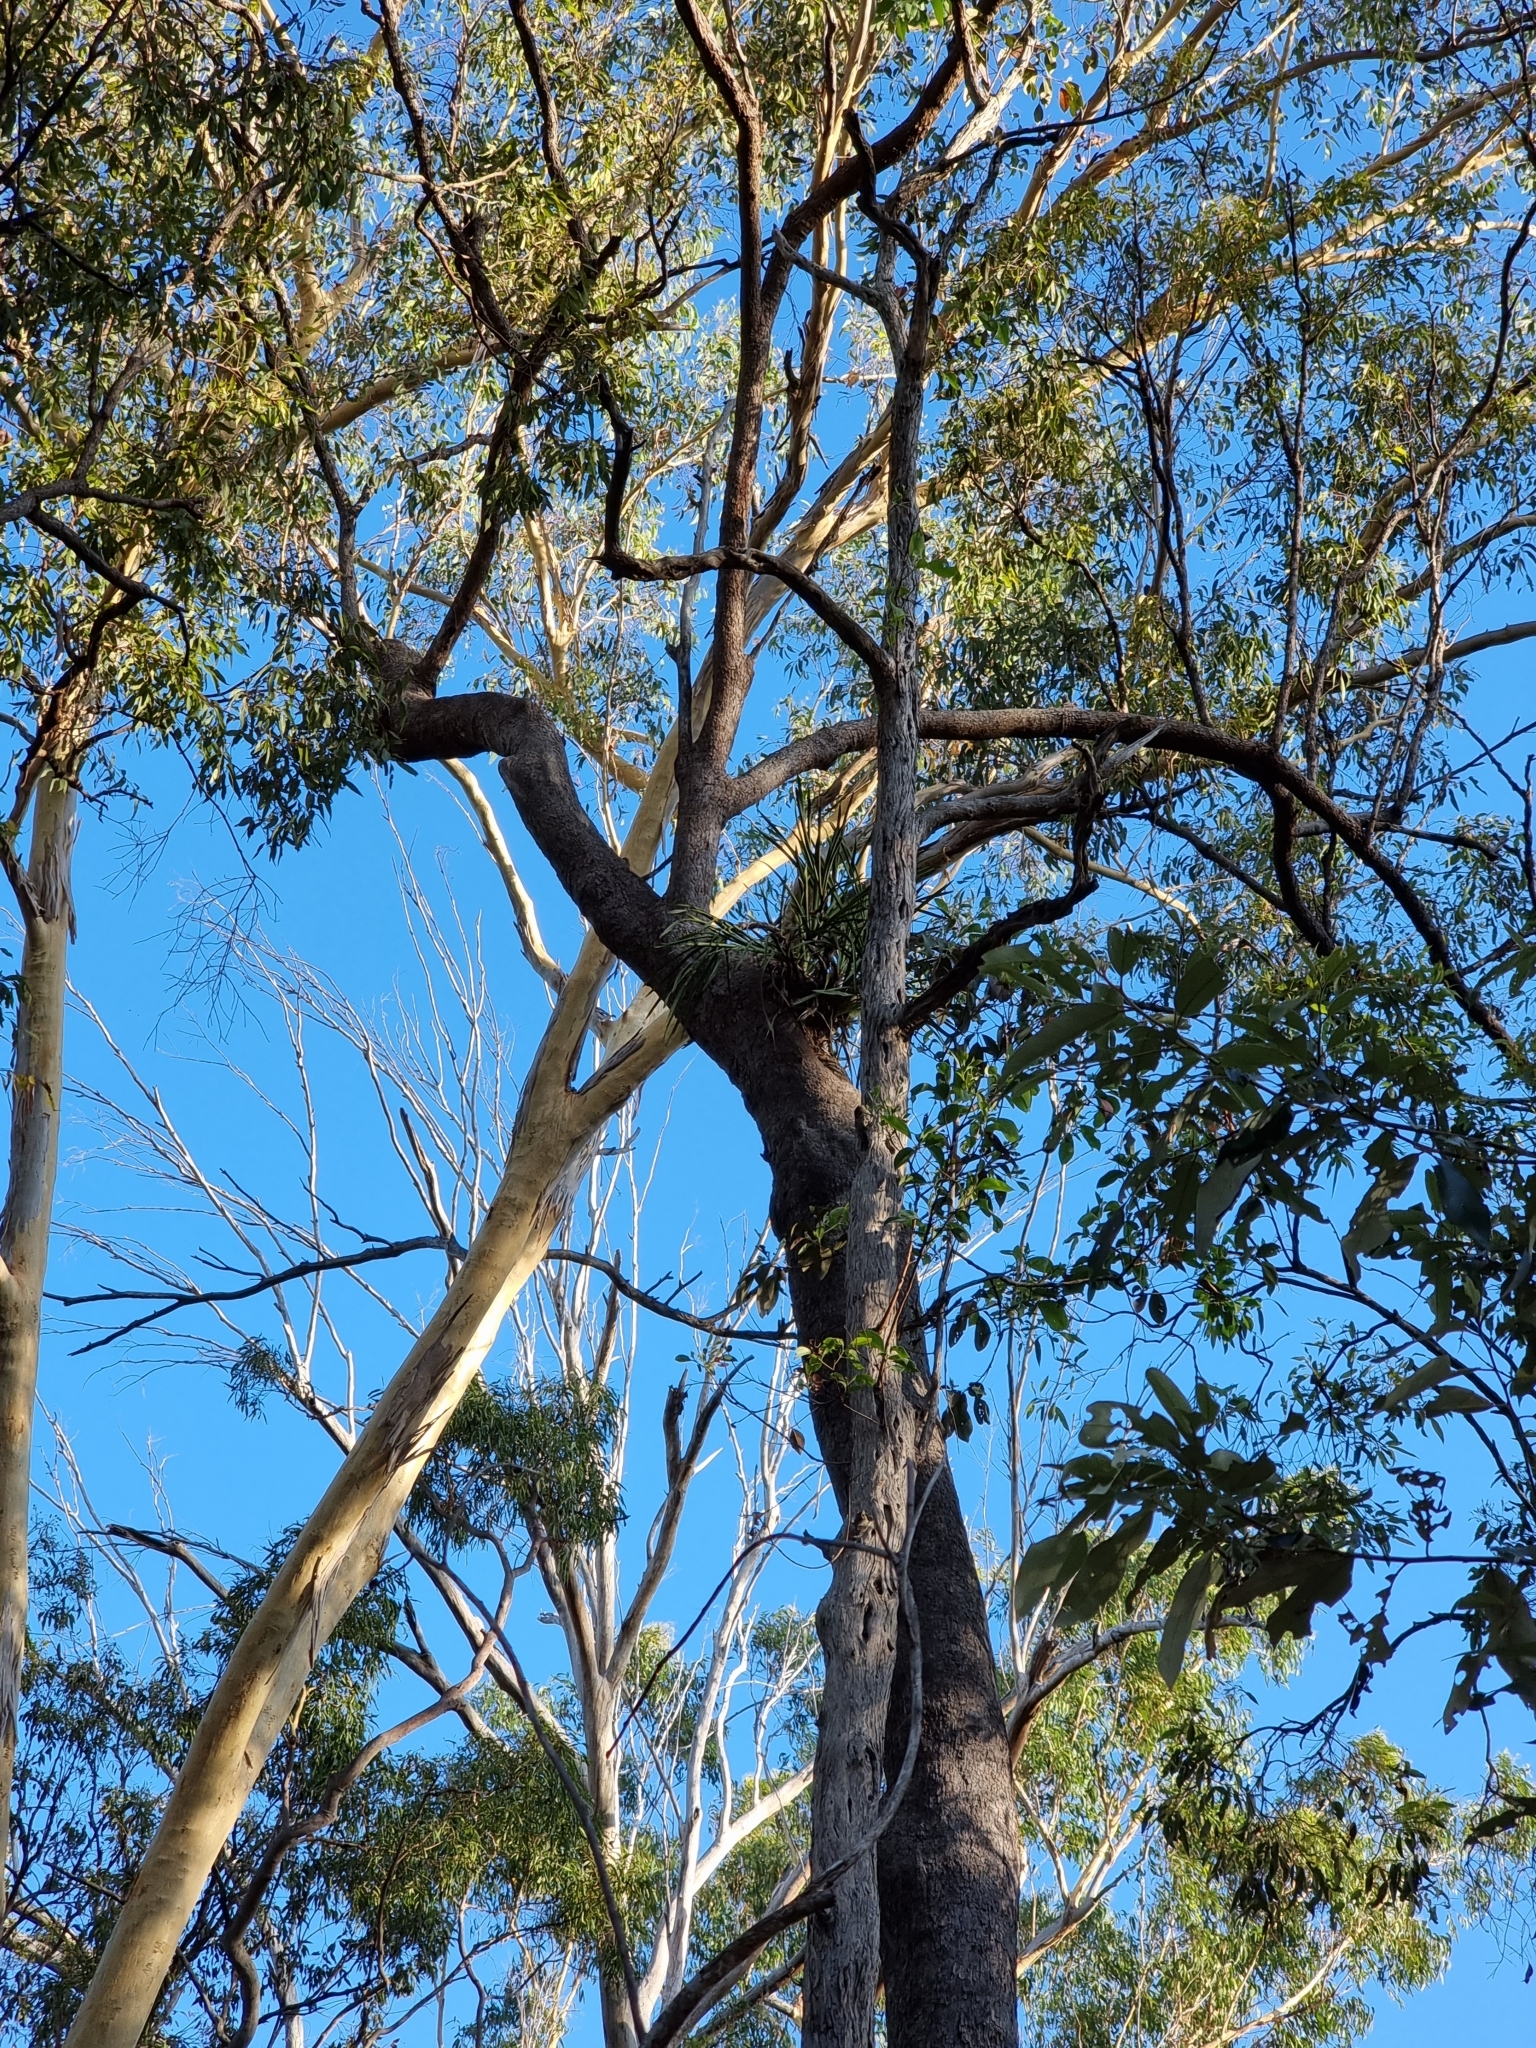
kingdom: Plantae
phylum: Tracheophyta
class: Liliopsida
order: Asparagales
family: Orchidaceae
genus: Cymbidium
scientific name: Cymbidium suave
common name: Snake orchid
